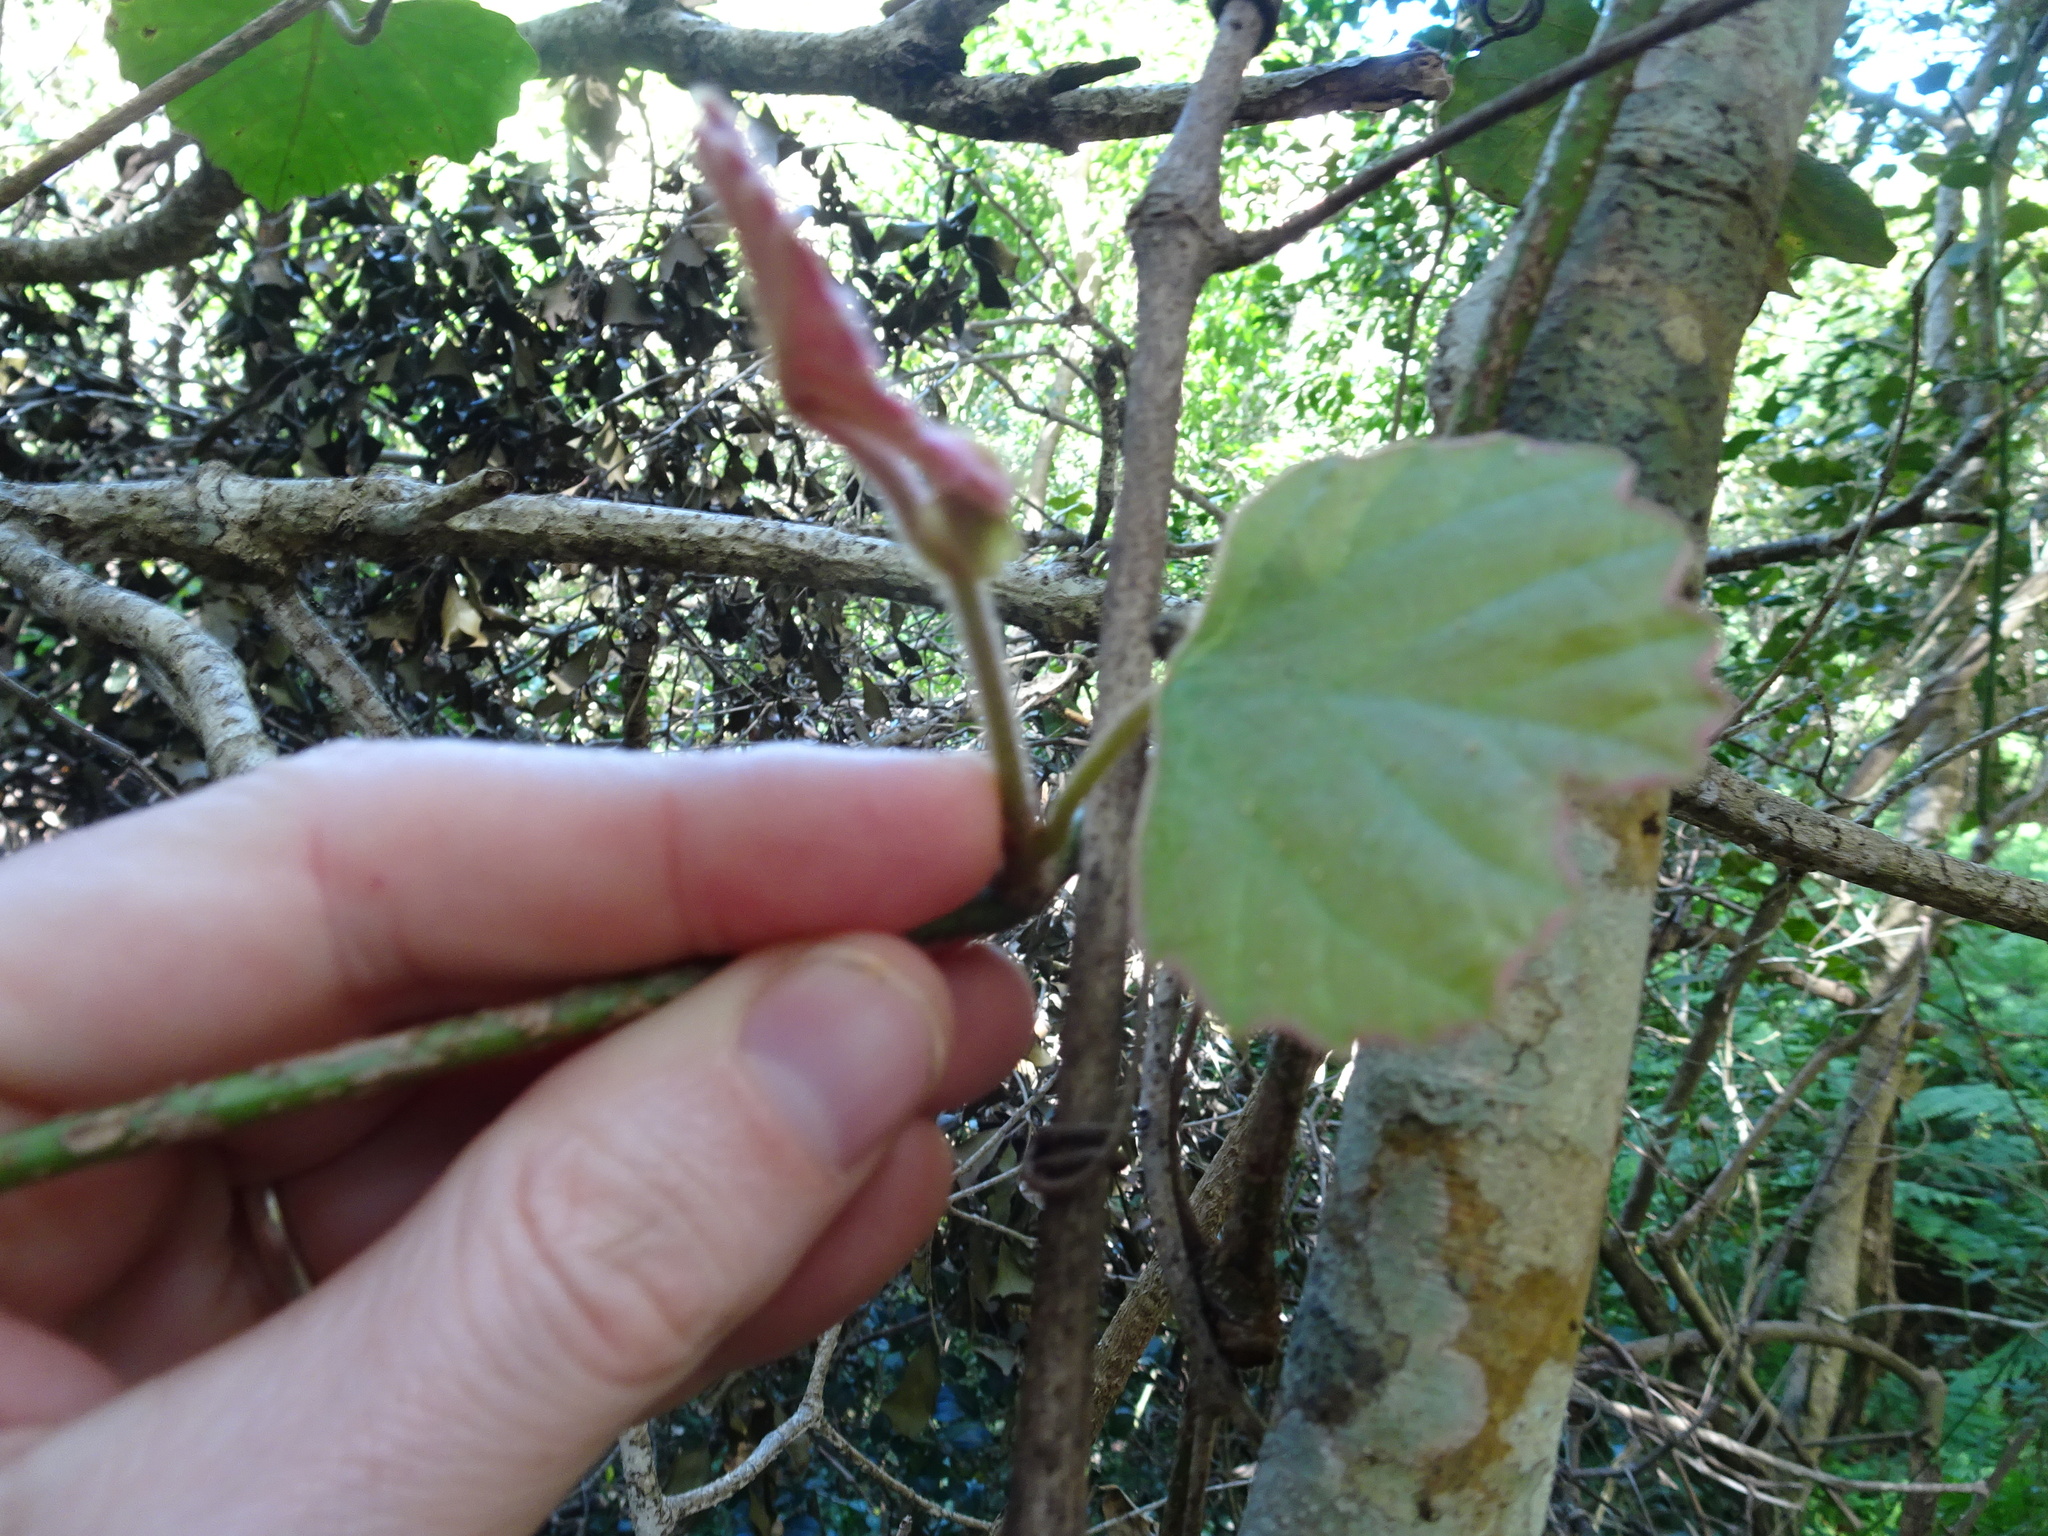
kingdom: Plantae
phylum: Tracheophyta
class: Magnoliopsida
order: Vitales
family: Vitaceae
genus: Rhoicissus
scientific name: Rhoicissus tomentosa
